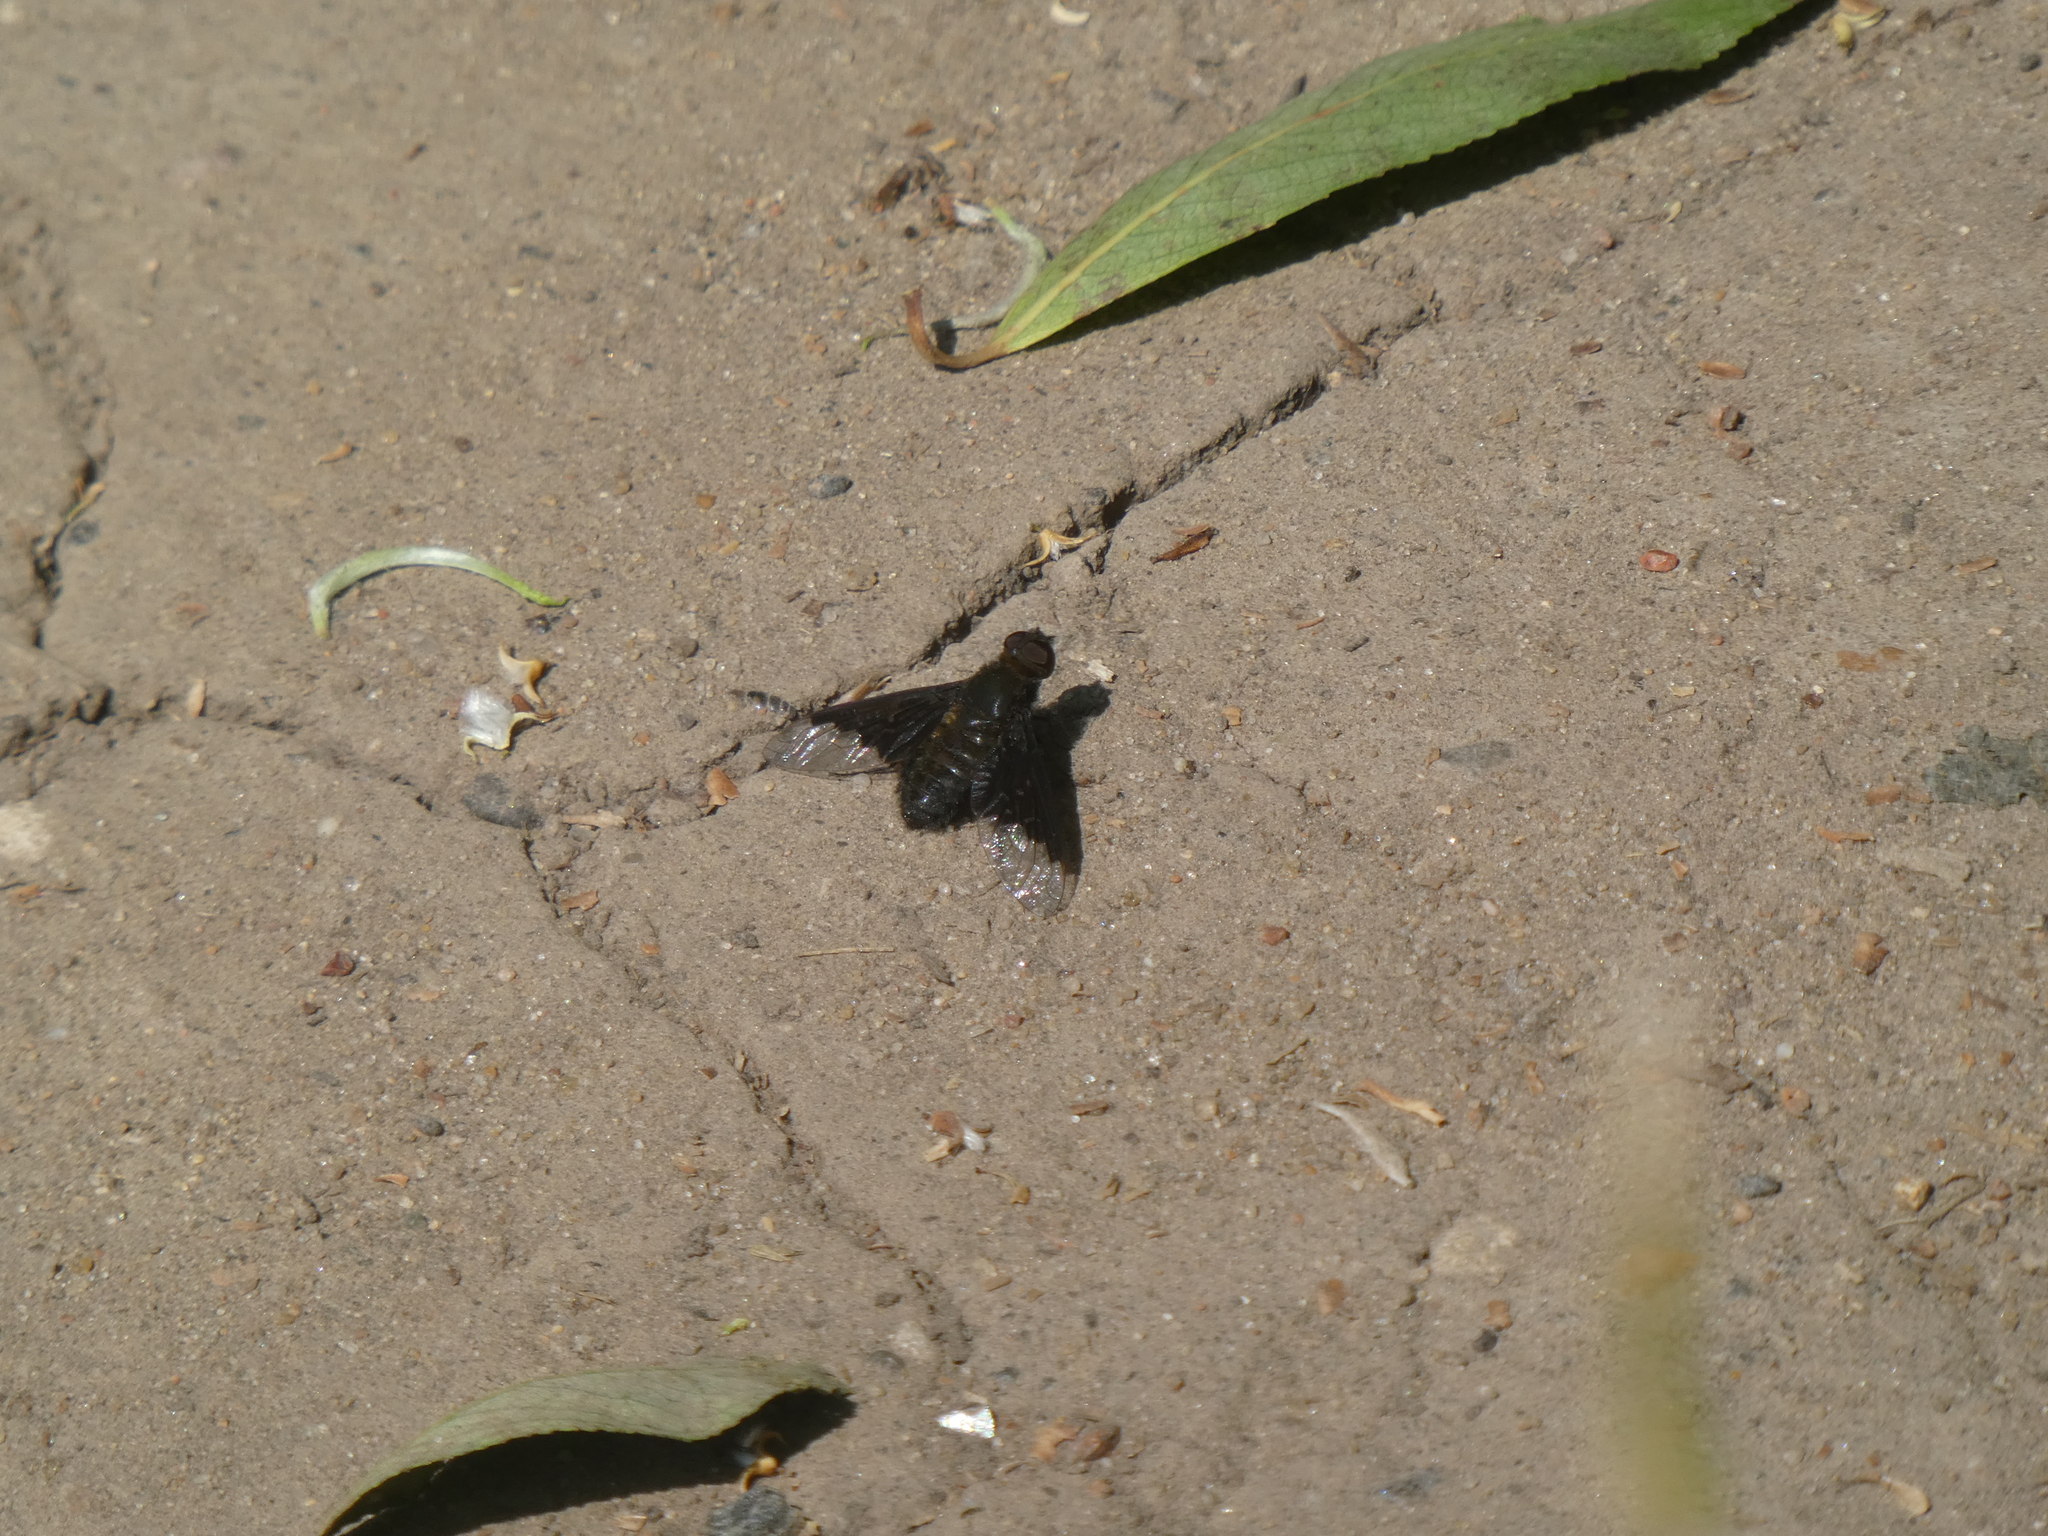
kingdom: Animalia
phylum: Arthropoda
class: Insecta
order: Diptera
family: Bombyliidae
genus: Hemipenthes
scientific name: Hemipenthes morio
